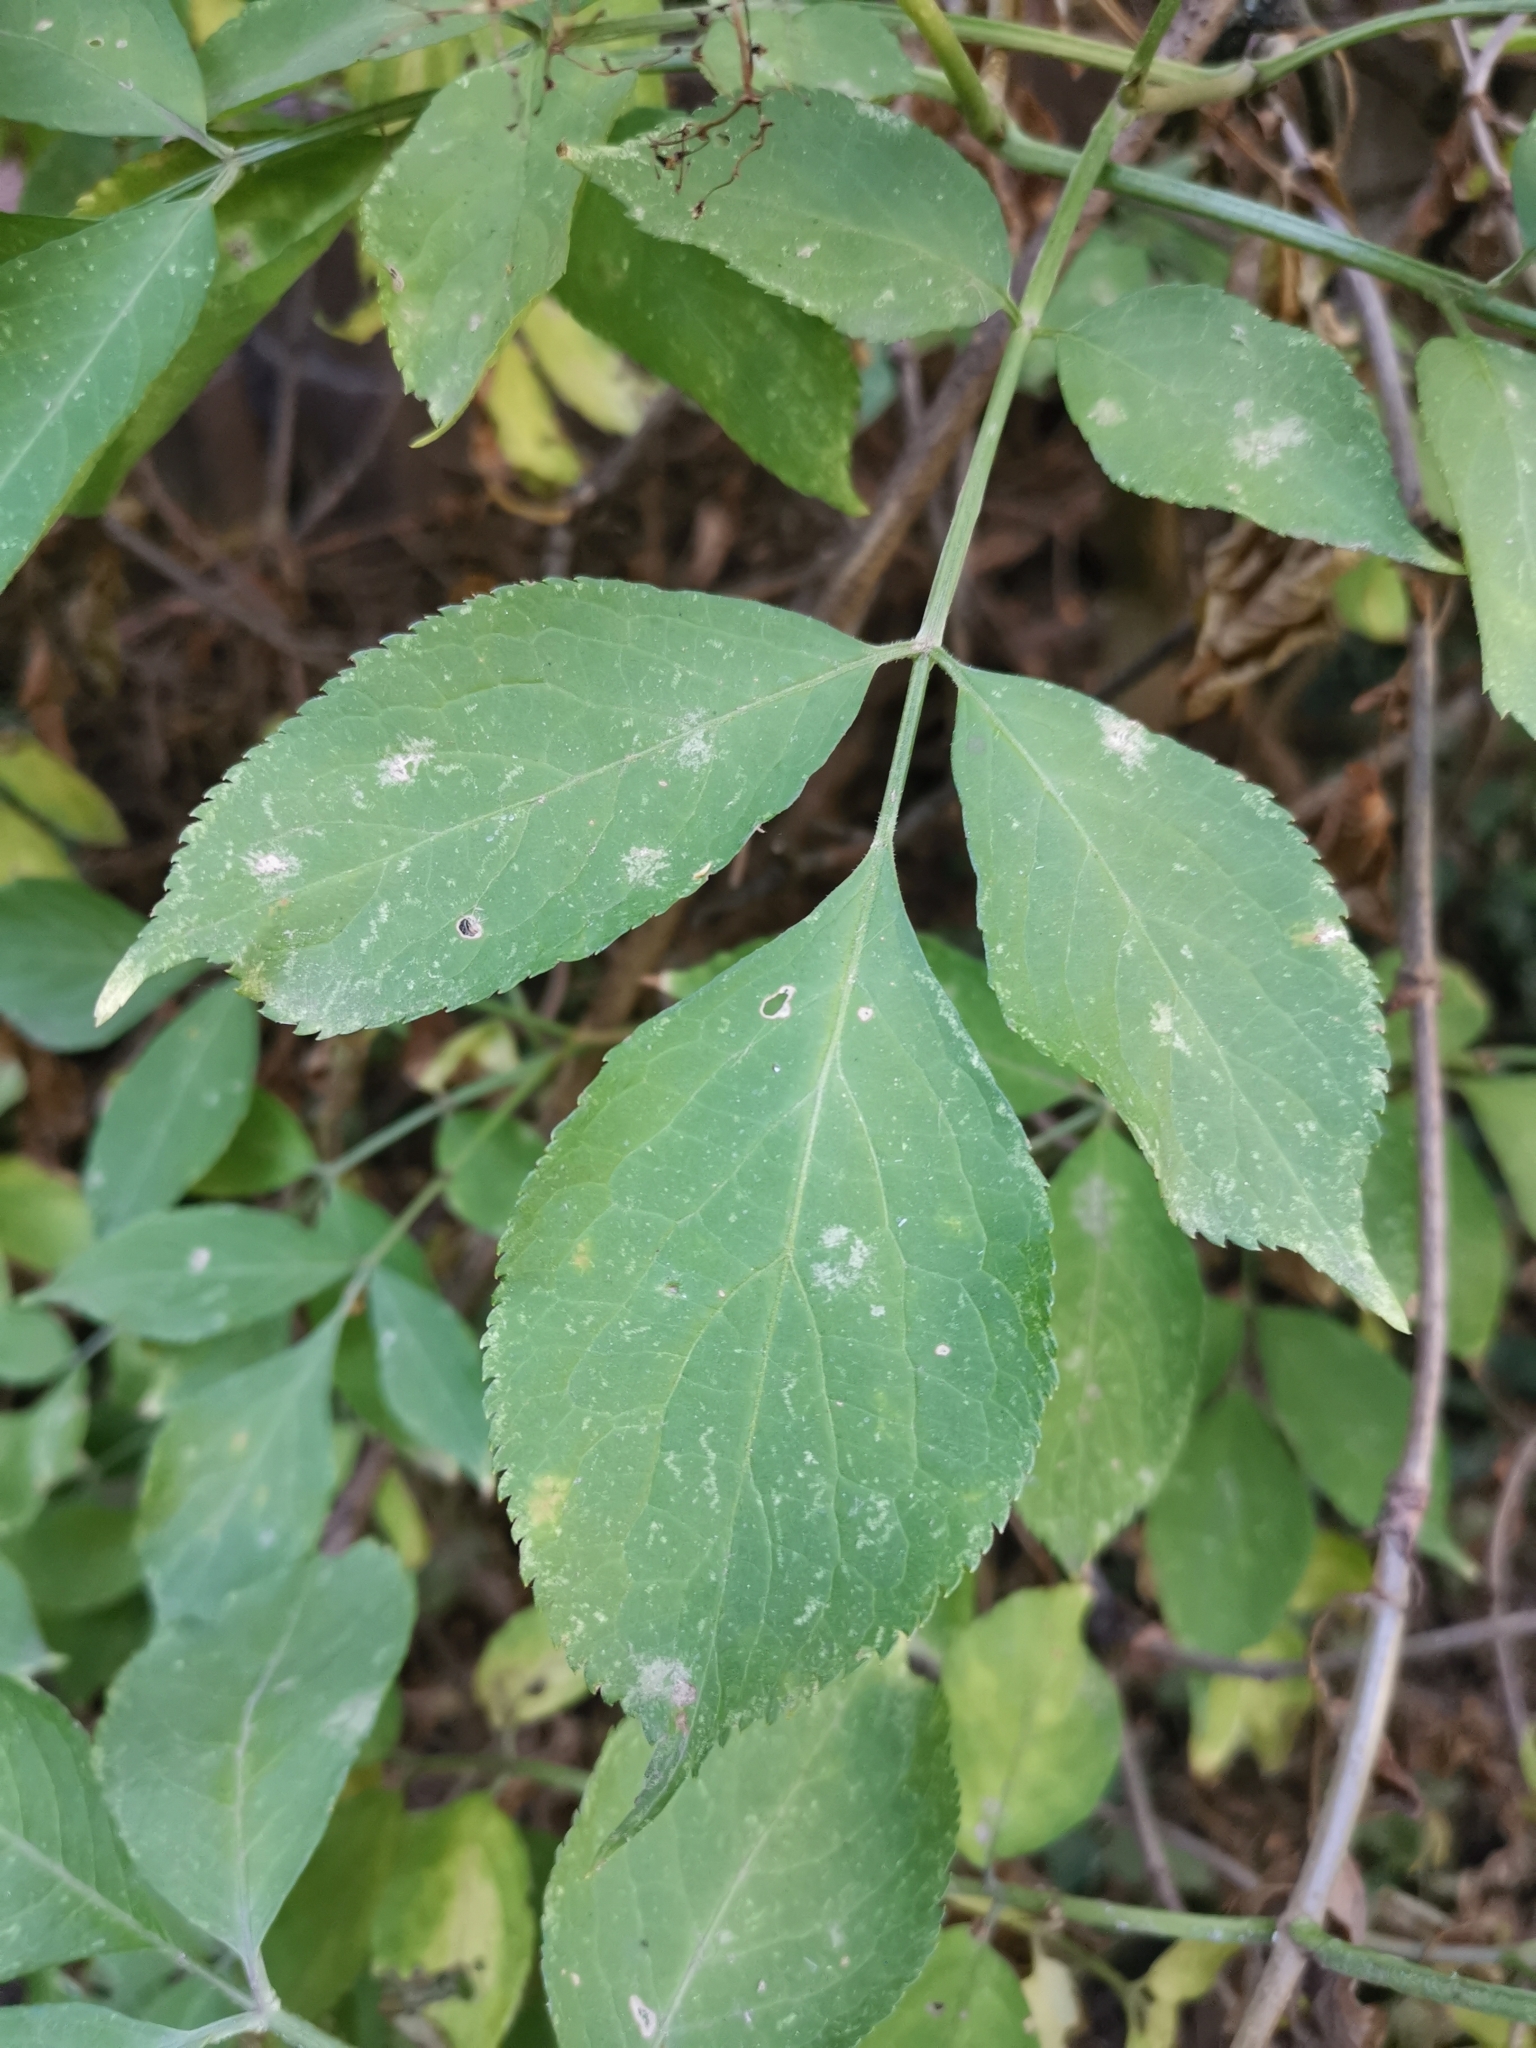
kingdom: Plantae
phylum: Tracheophyta
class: Magnoliopsida
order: Dipsacales
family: Viburnaceae
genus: Sambucus
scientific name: Sambucus nigra
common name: Elder
